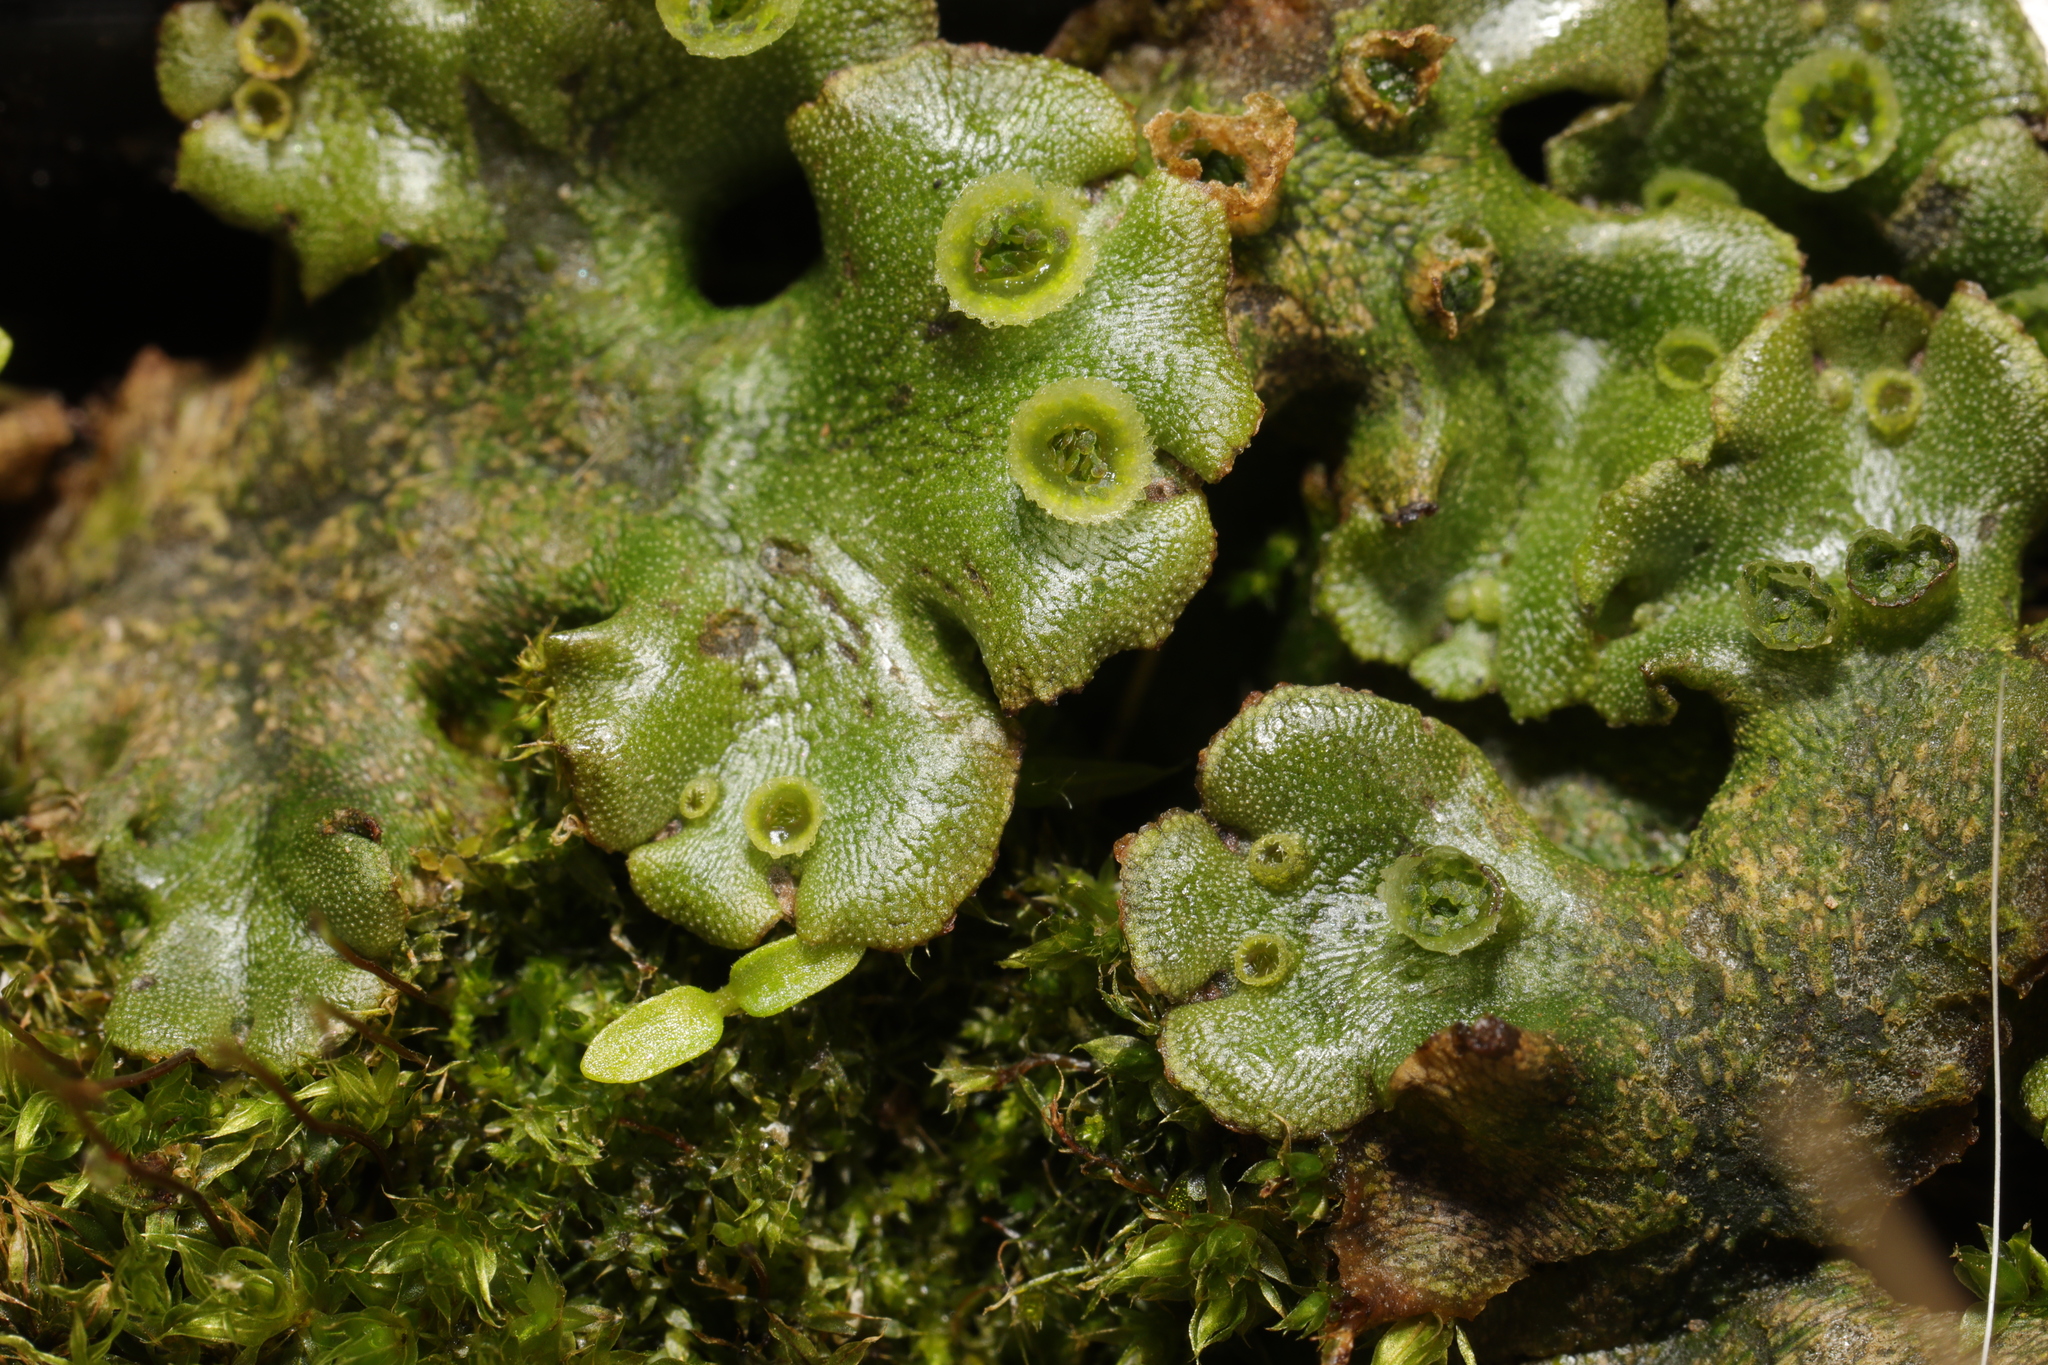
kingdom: Plantae
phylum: Marchantiophyta
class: Marchantiopsida
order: Marchantiales
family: Marchantiaceae
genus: Marchantia
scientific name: Marchantia polymorpha
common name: Common liverwort
